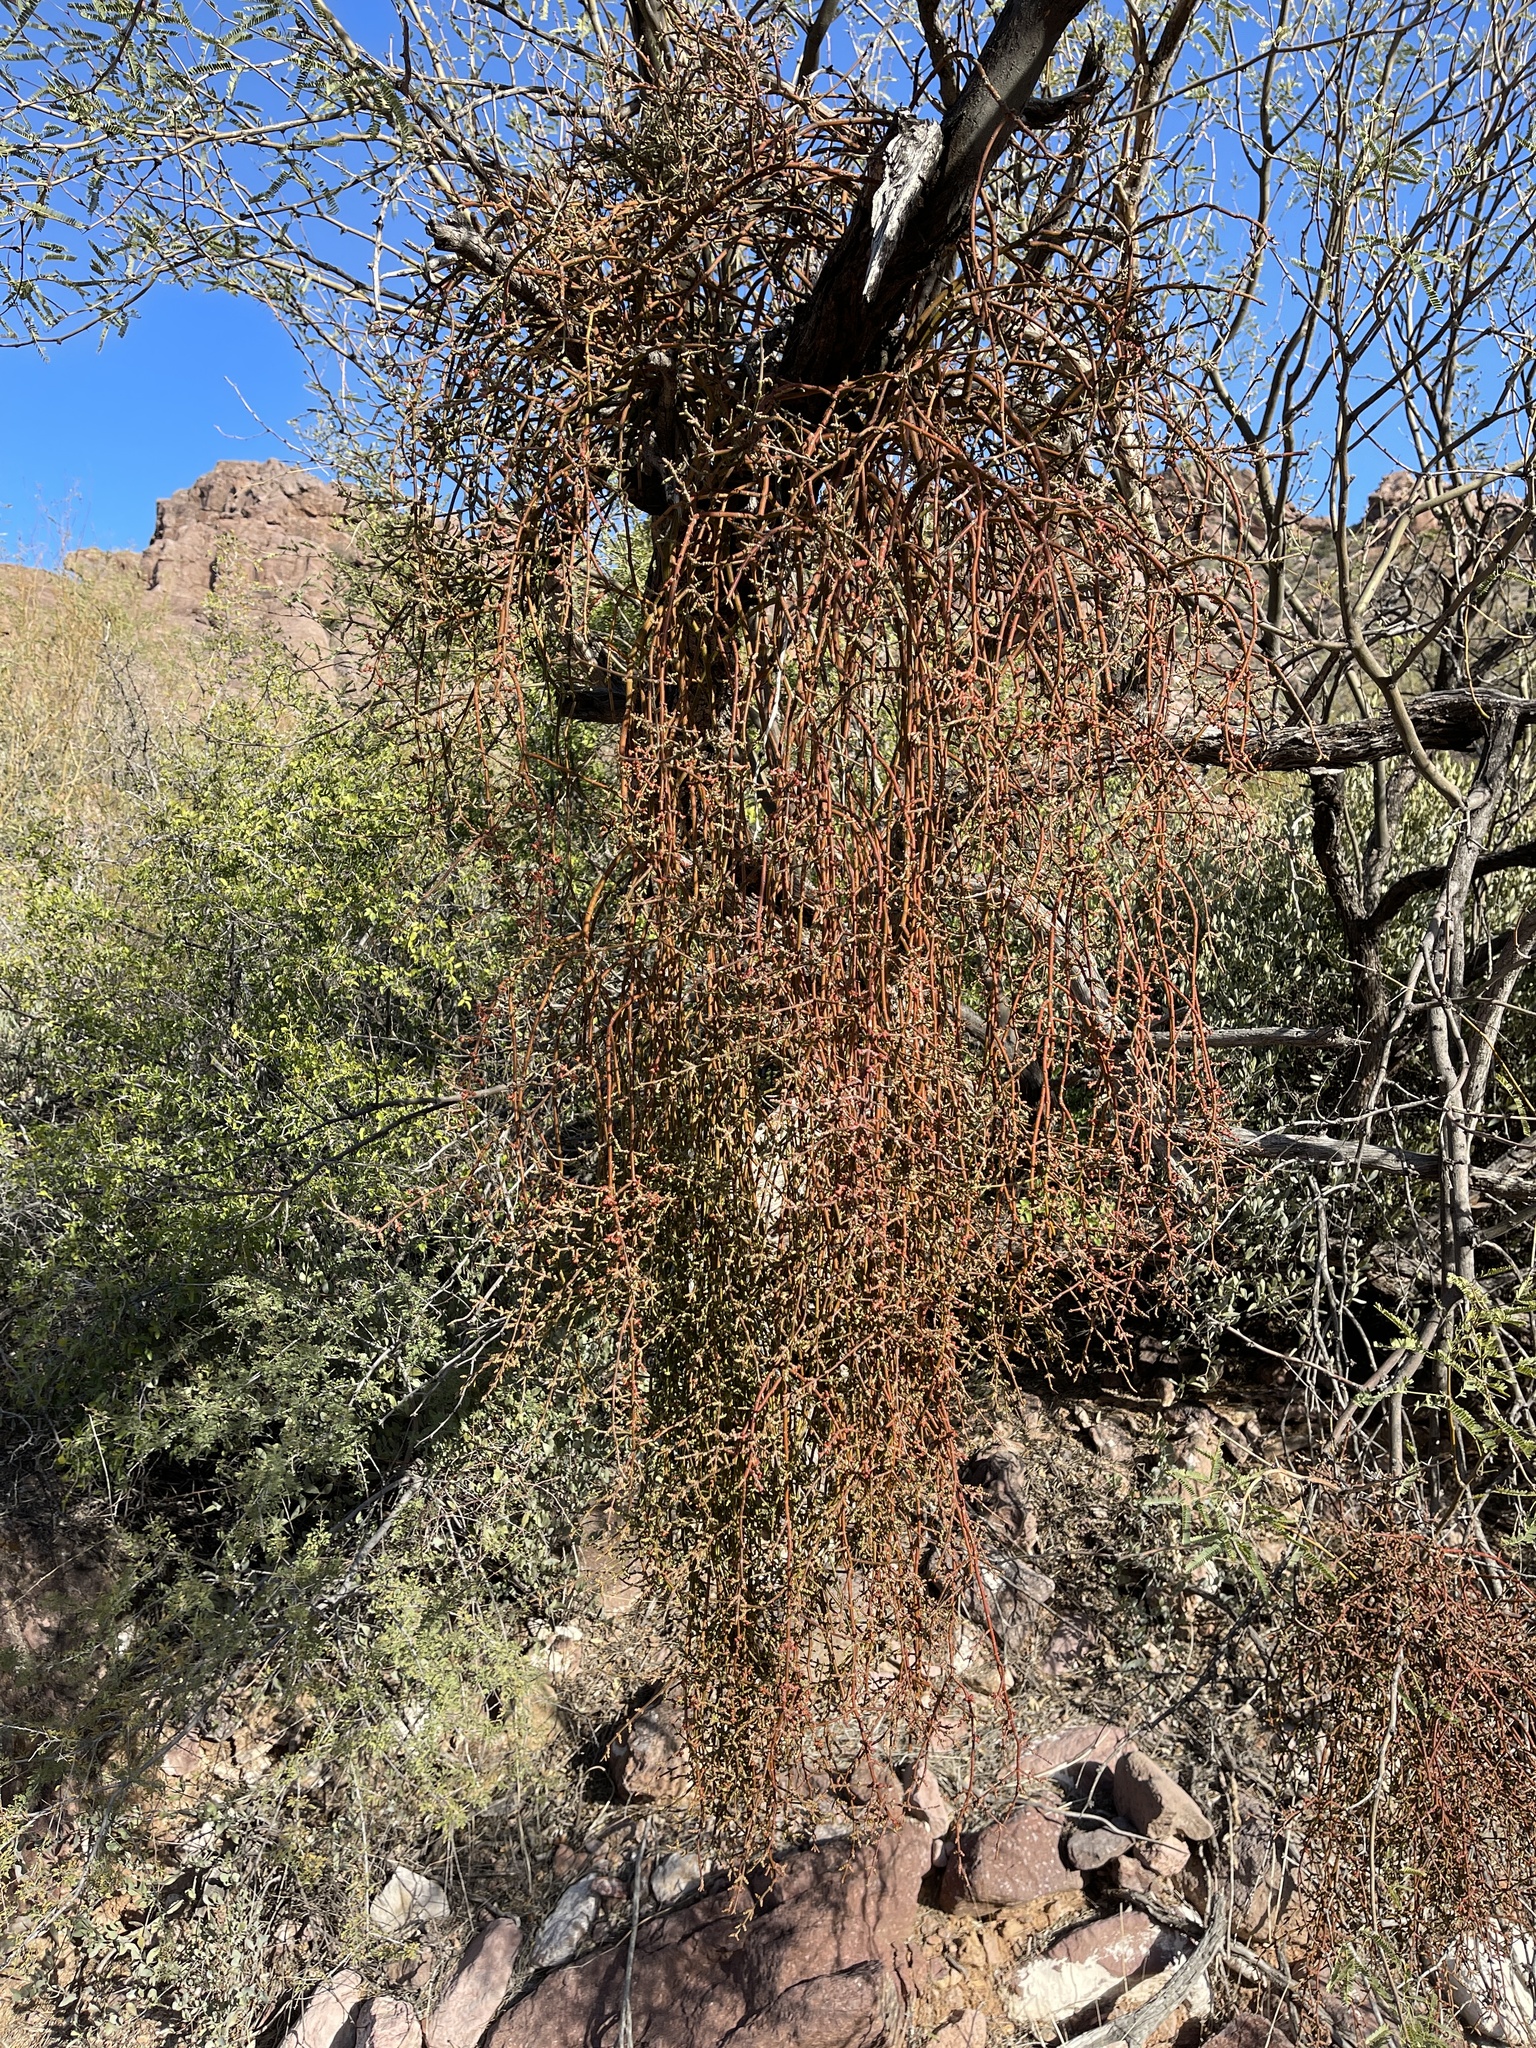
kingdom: Plantae
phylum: Tracheophyta
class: Magnoliopsida
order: Santalales
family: Viscaceae
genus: Phoradendron
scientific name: Phoradendron californicum
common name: Acacia mistletoe
